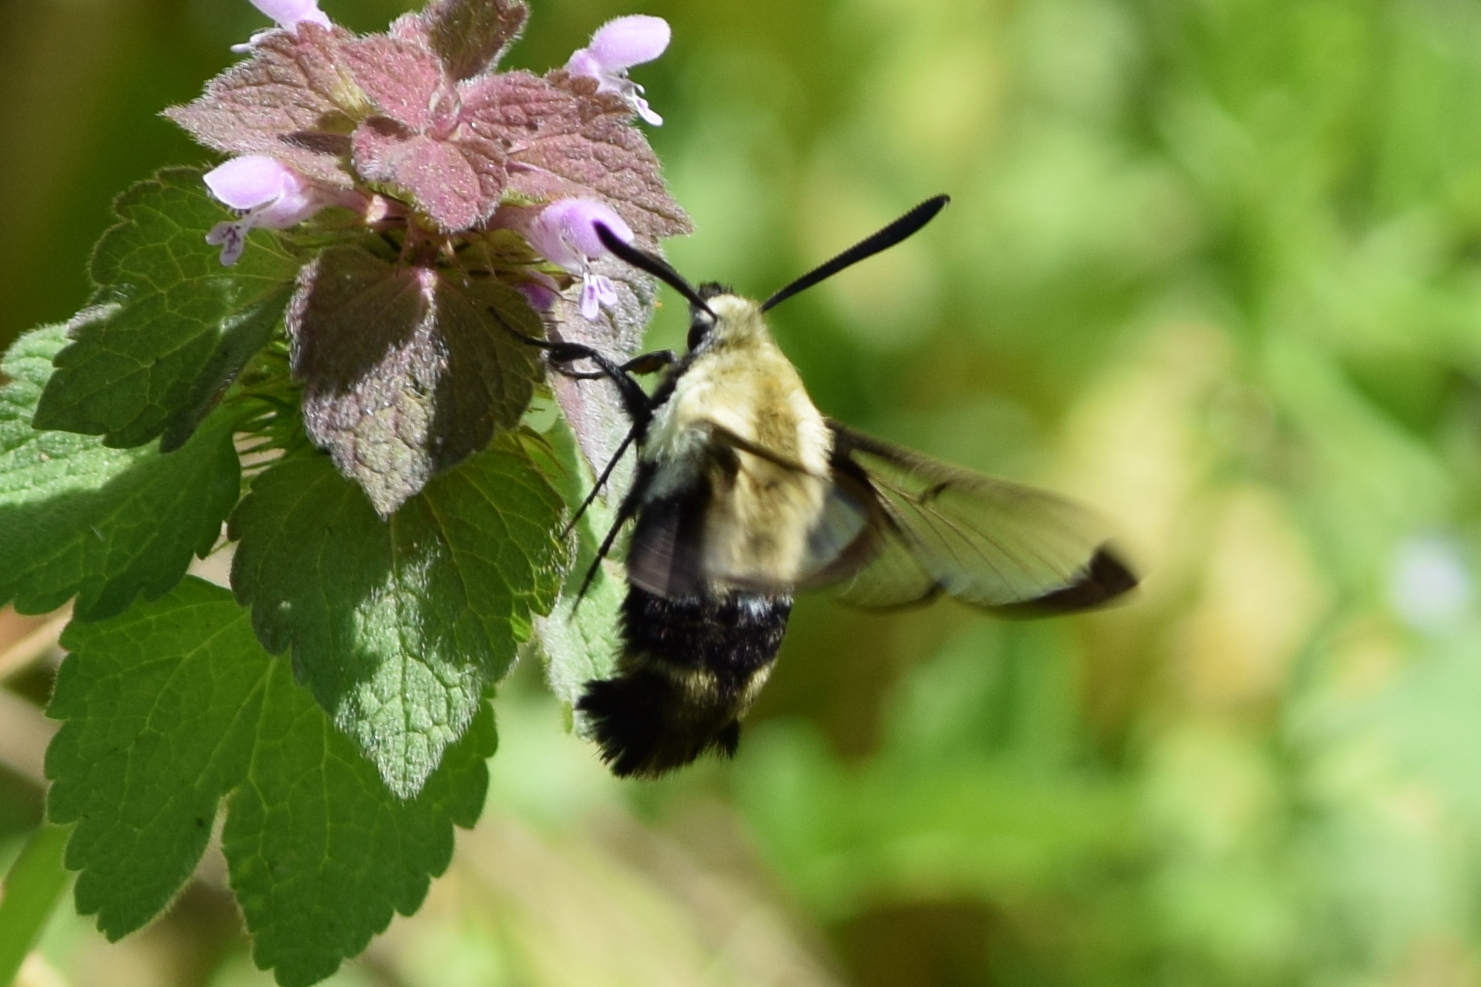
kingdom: Animalia
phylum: Arthropoda
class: Insecta
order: Lepidoptera
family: Sphingidae
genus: Hemaris
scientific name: Hemaris diffinis
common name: Bumblebee moth
